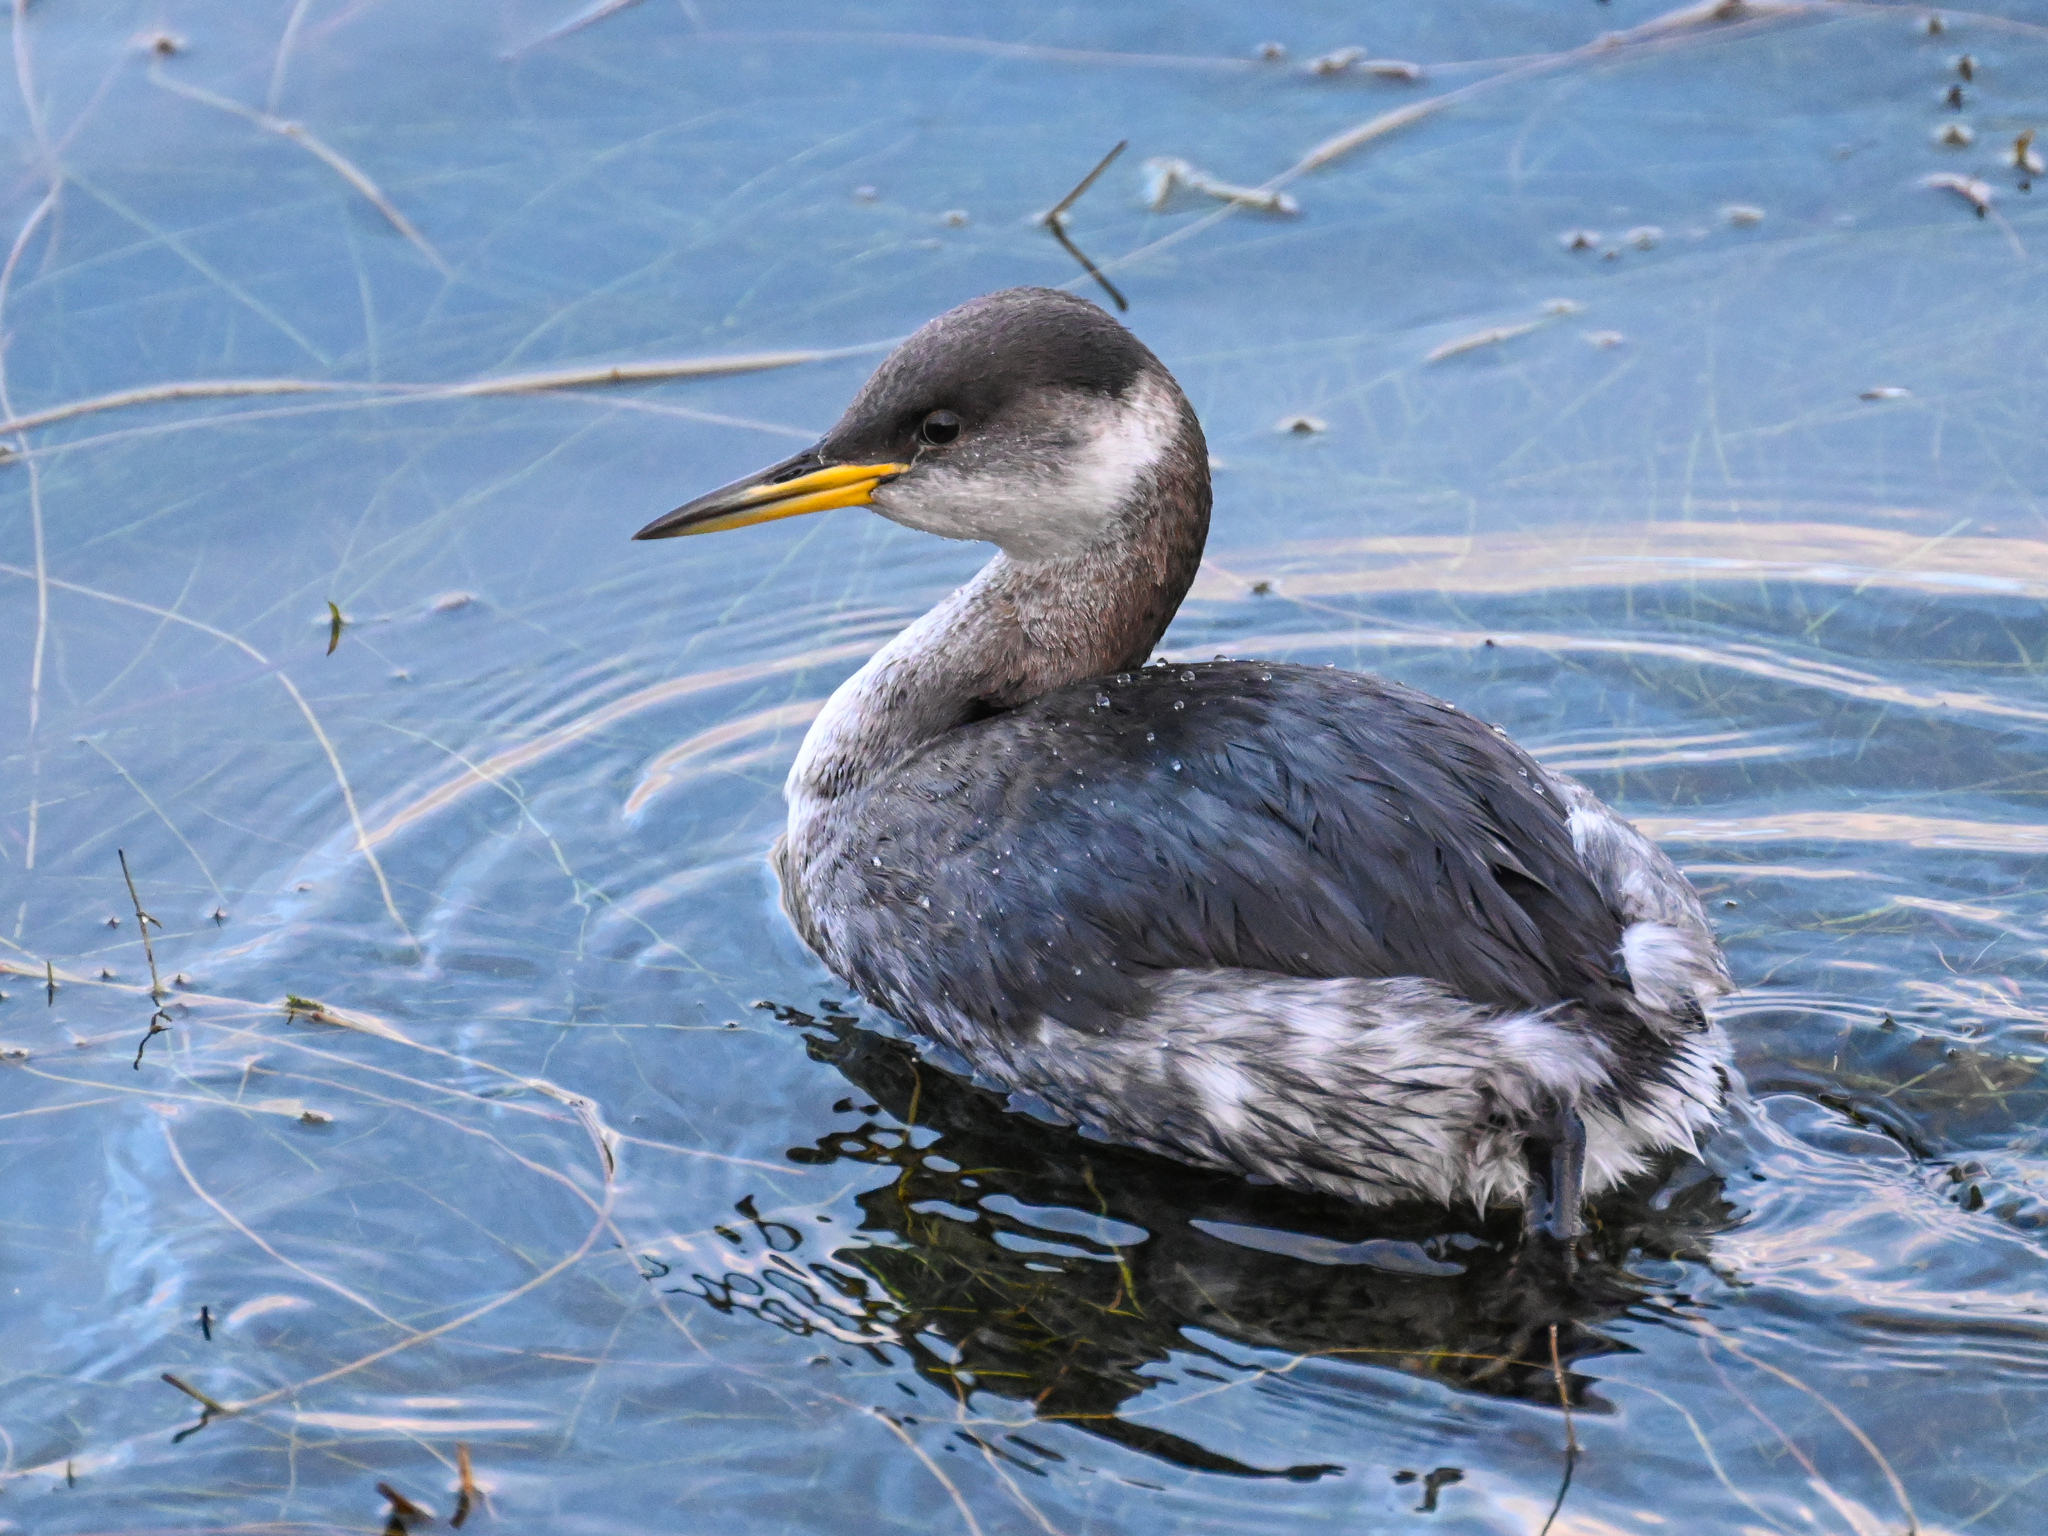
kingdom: Animalia
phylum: Chordata
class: Aves
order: Podicipediformes
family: Podicipedidae
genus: Podiceps
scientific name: Podiceps grisegena
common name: Red-necked grebe
